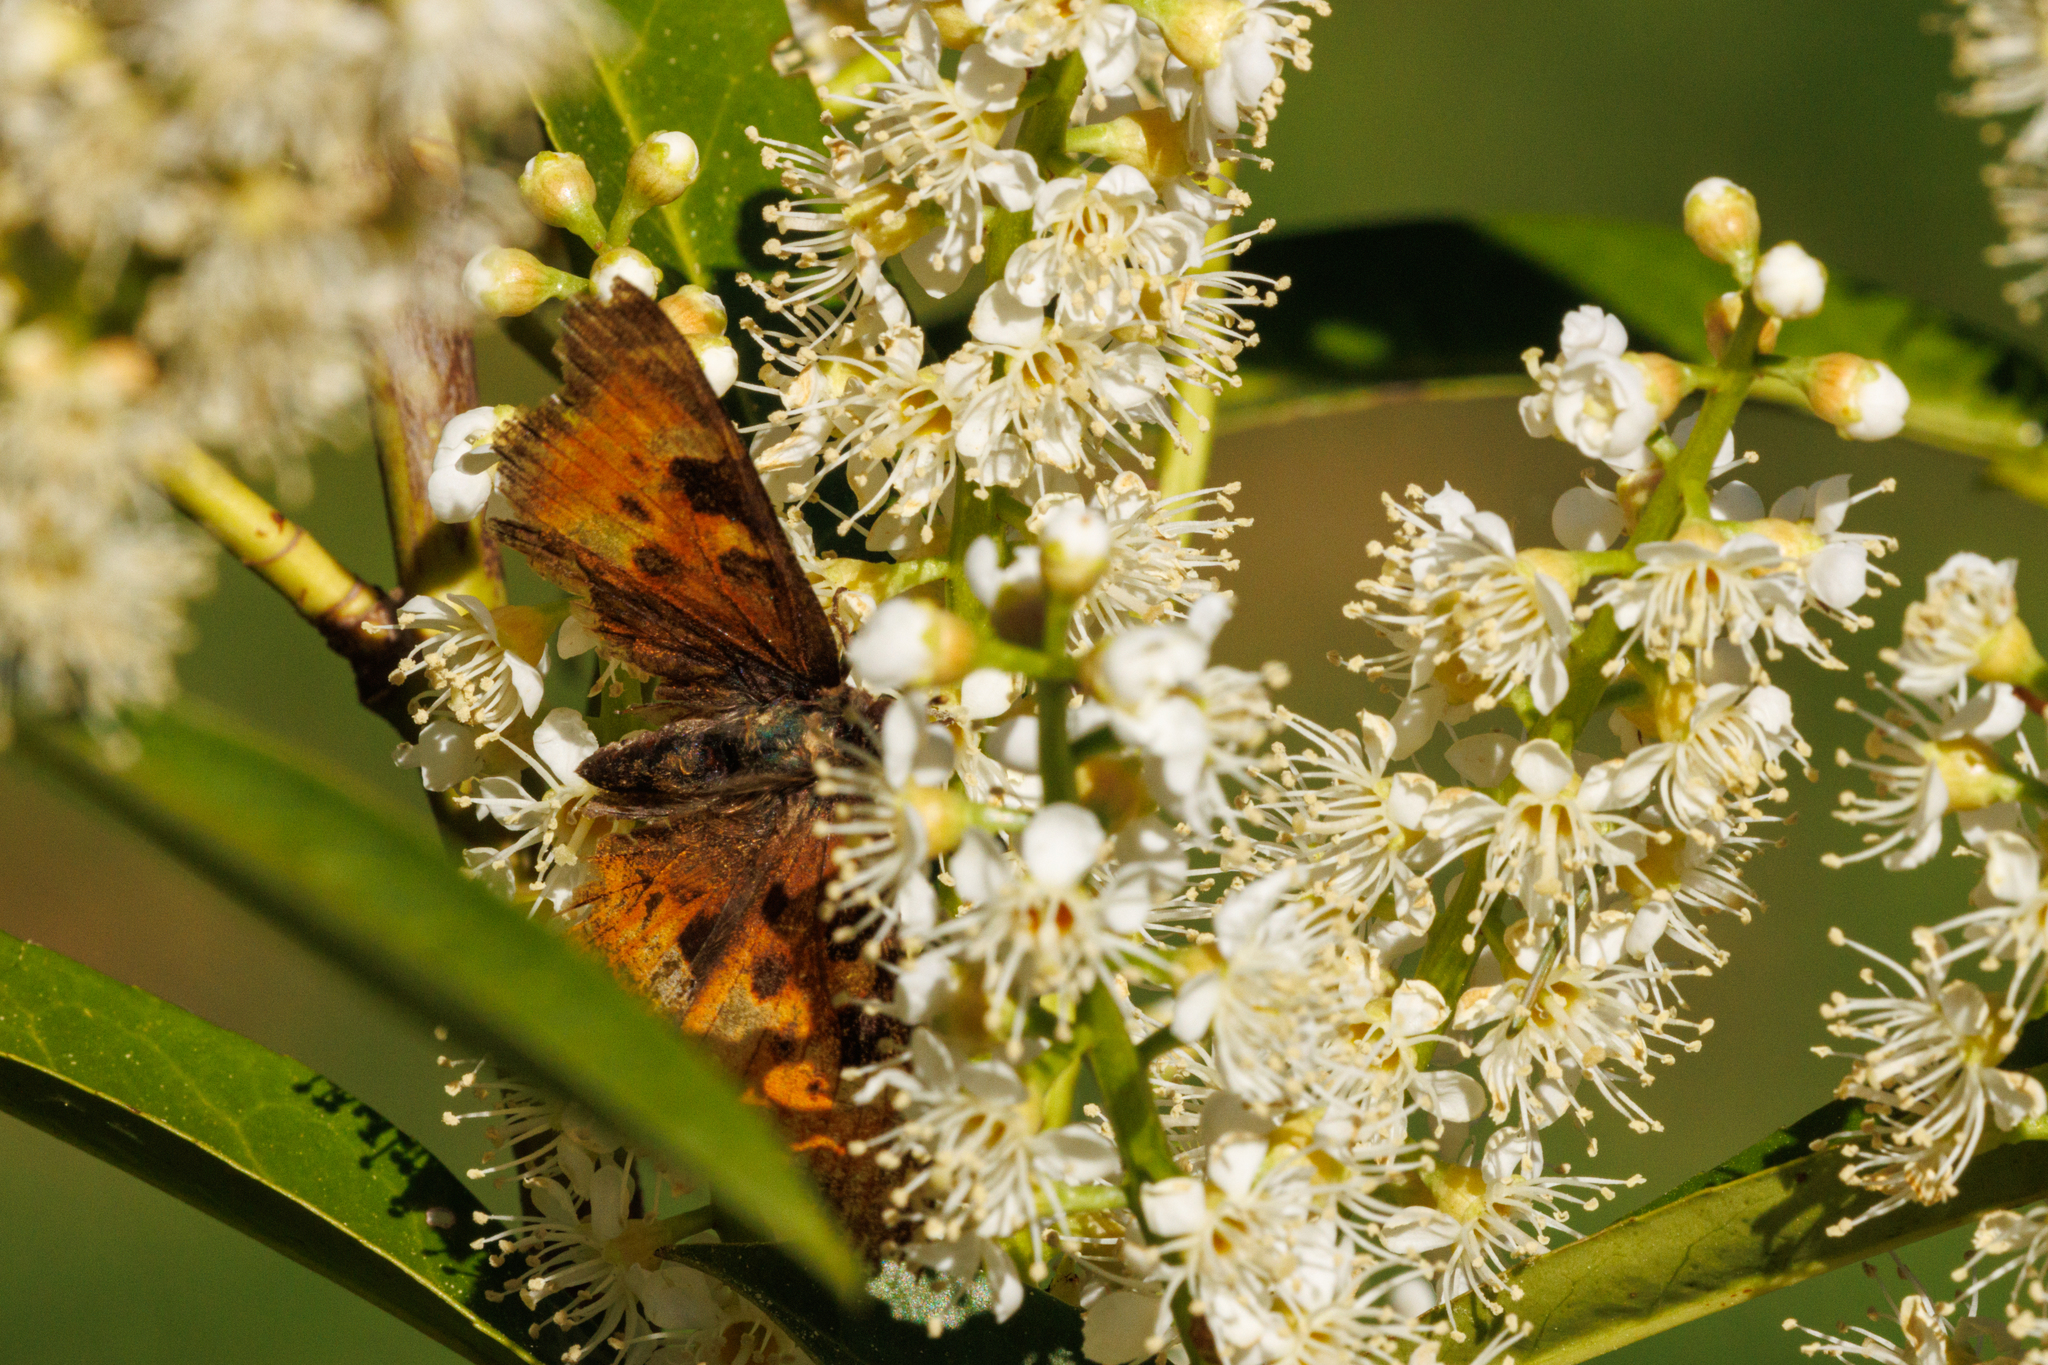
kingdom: Animalia
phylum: Arthropoda
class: Insecta
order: Lepidoptera
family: Nymphalidae
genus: Nymphalis
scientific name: Nymphalis californica
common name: California tortoiseshell
